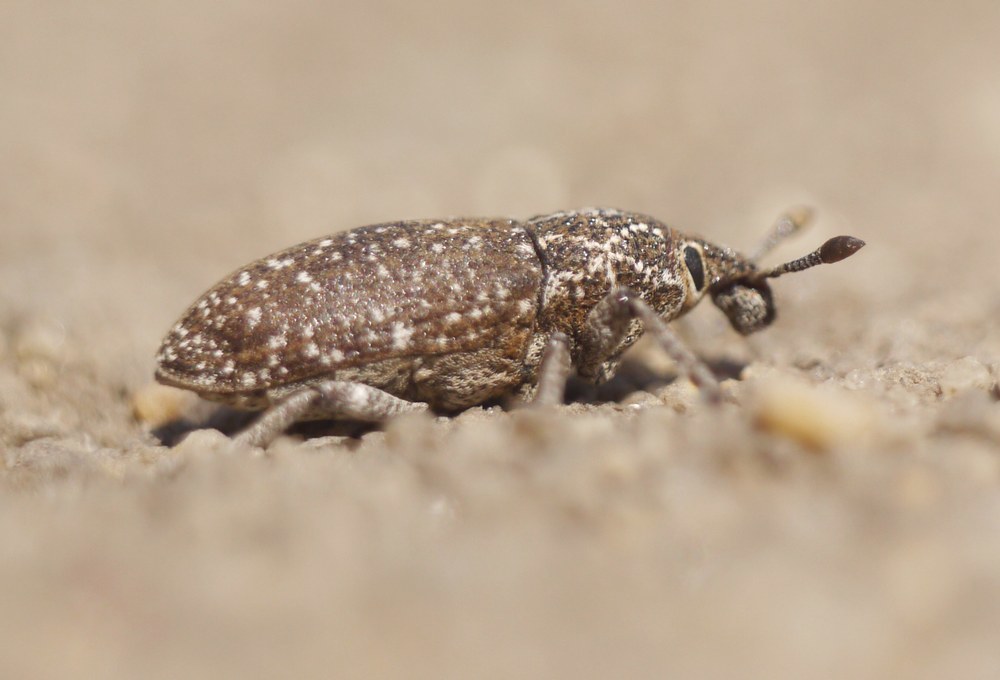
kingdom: Animalia
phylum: Arthropoda
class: Insecta
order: Coleoptera
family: Curculionidae
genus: Rhabdorrhynchus
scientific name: Rhabdorrhynchus
